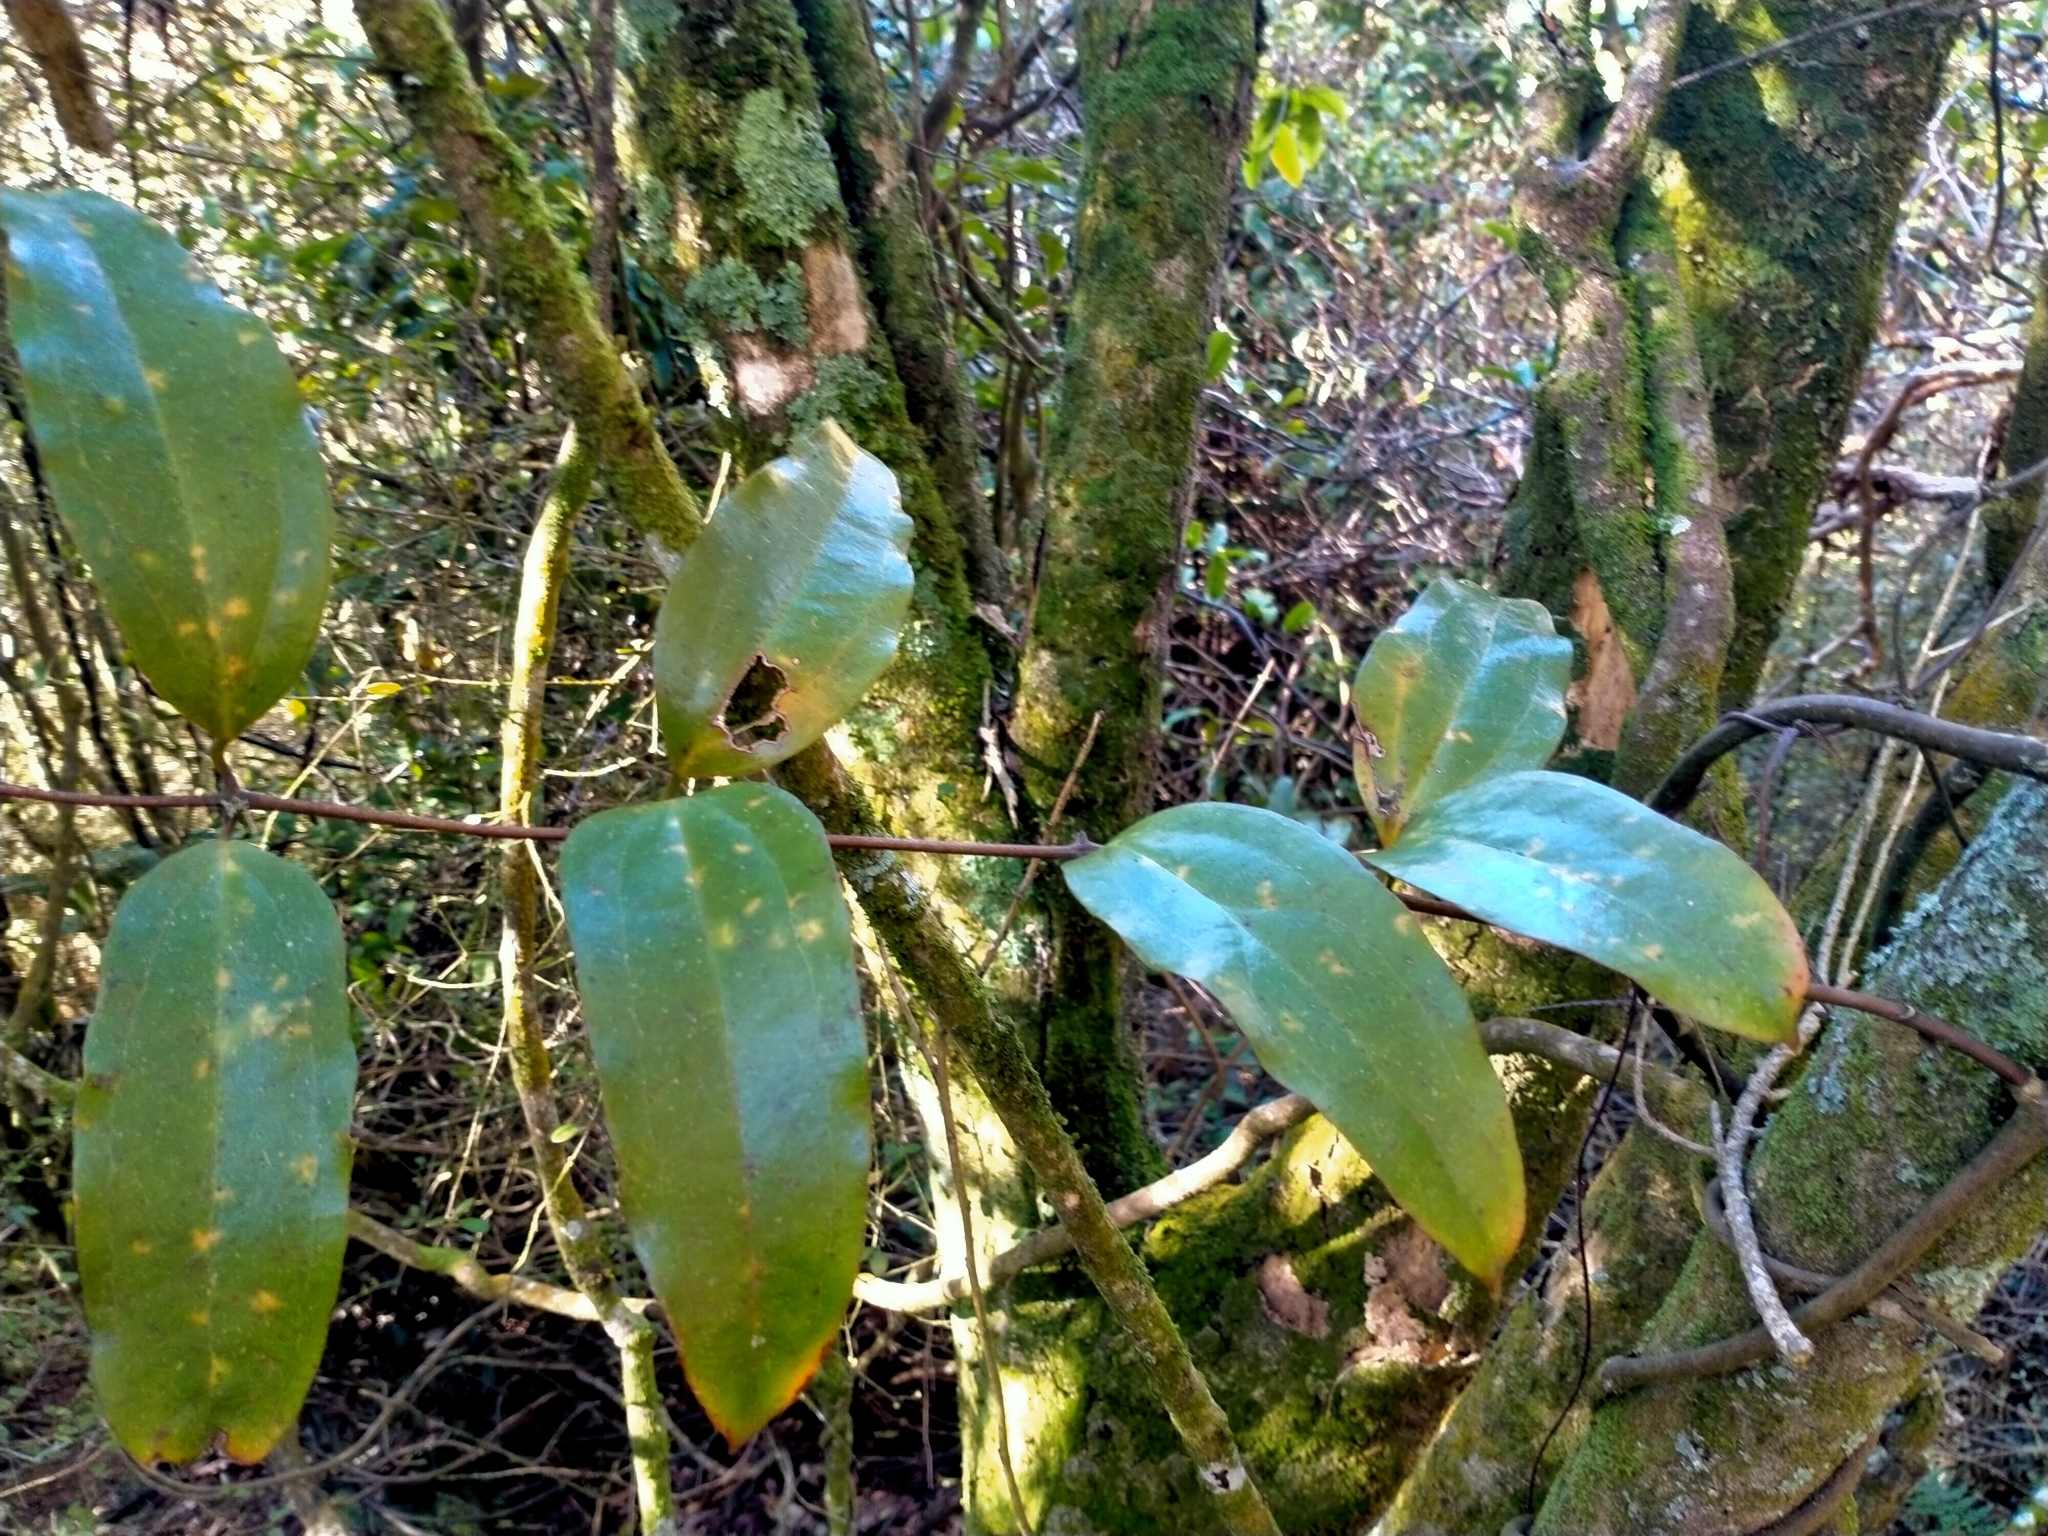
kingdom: Plantae
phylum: Tracheophyta
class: Liliopsida
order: Liliales
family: Ripogonaceae
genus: Ripogonum
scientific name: Ripogonum scandens
